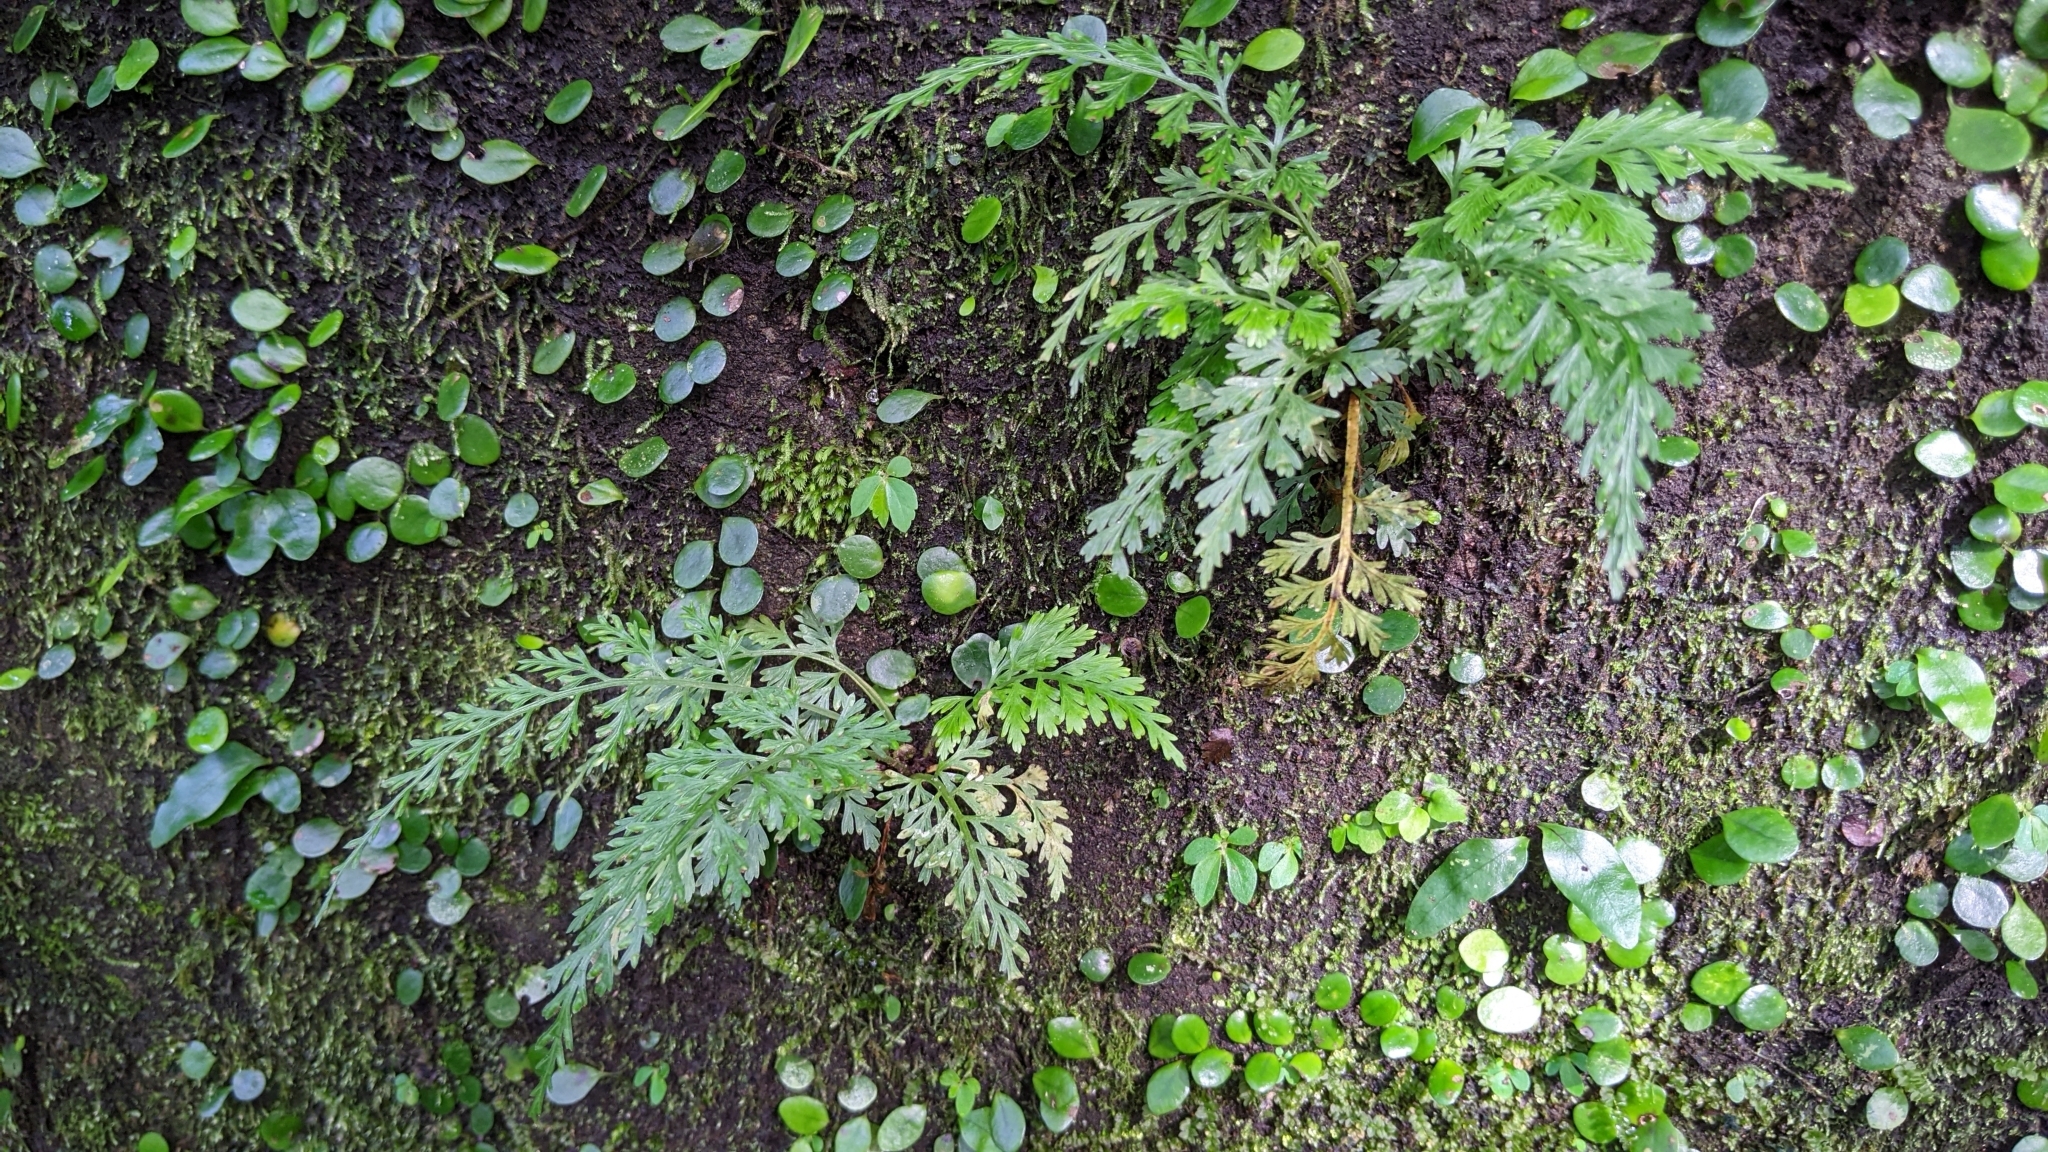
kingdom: Plantae
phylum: Tracheophyta
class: Polypodiopsida
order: Polypodiales
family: Aspleniaceae
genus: Asplenium
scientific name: Asplenium ritoense
